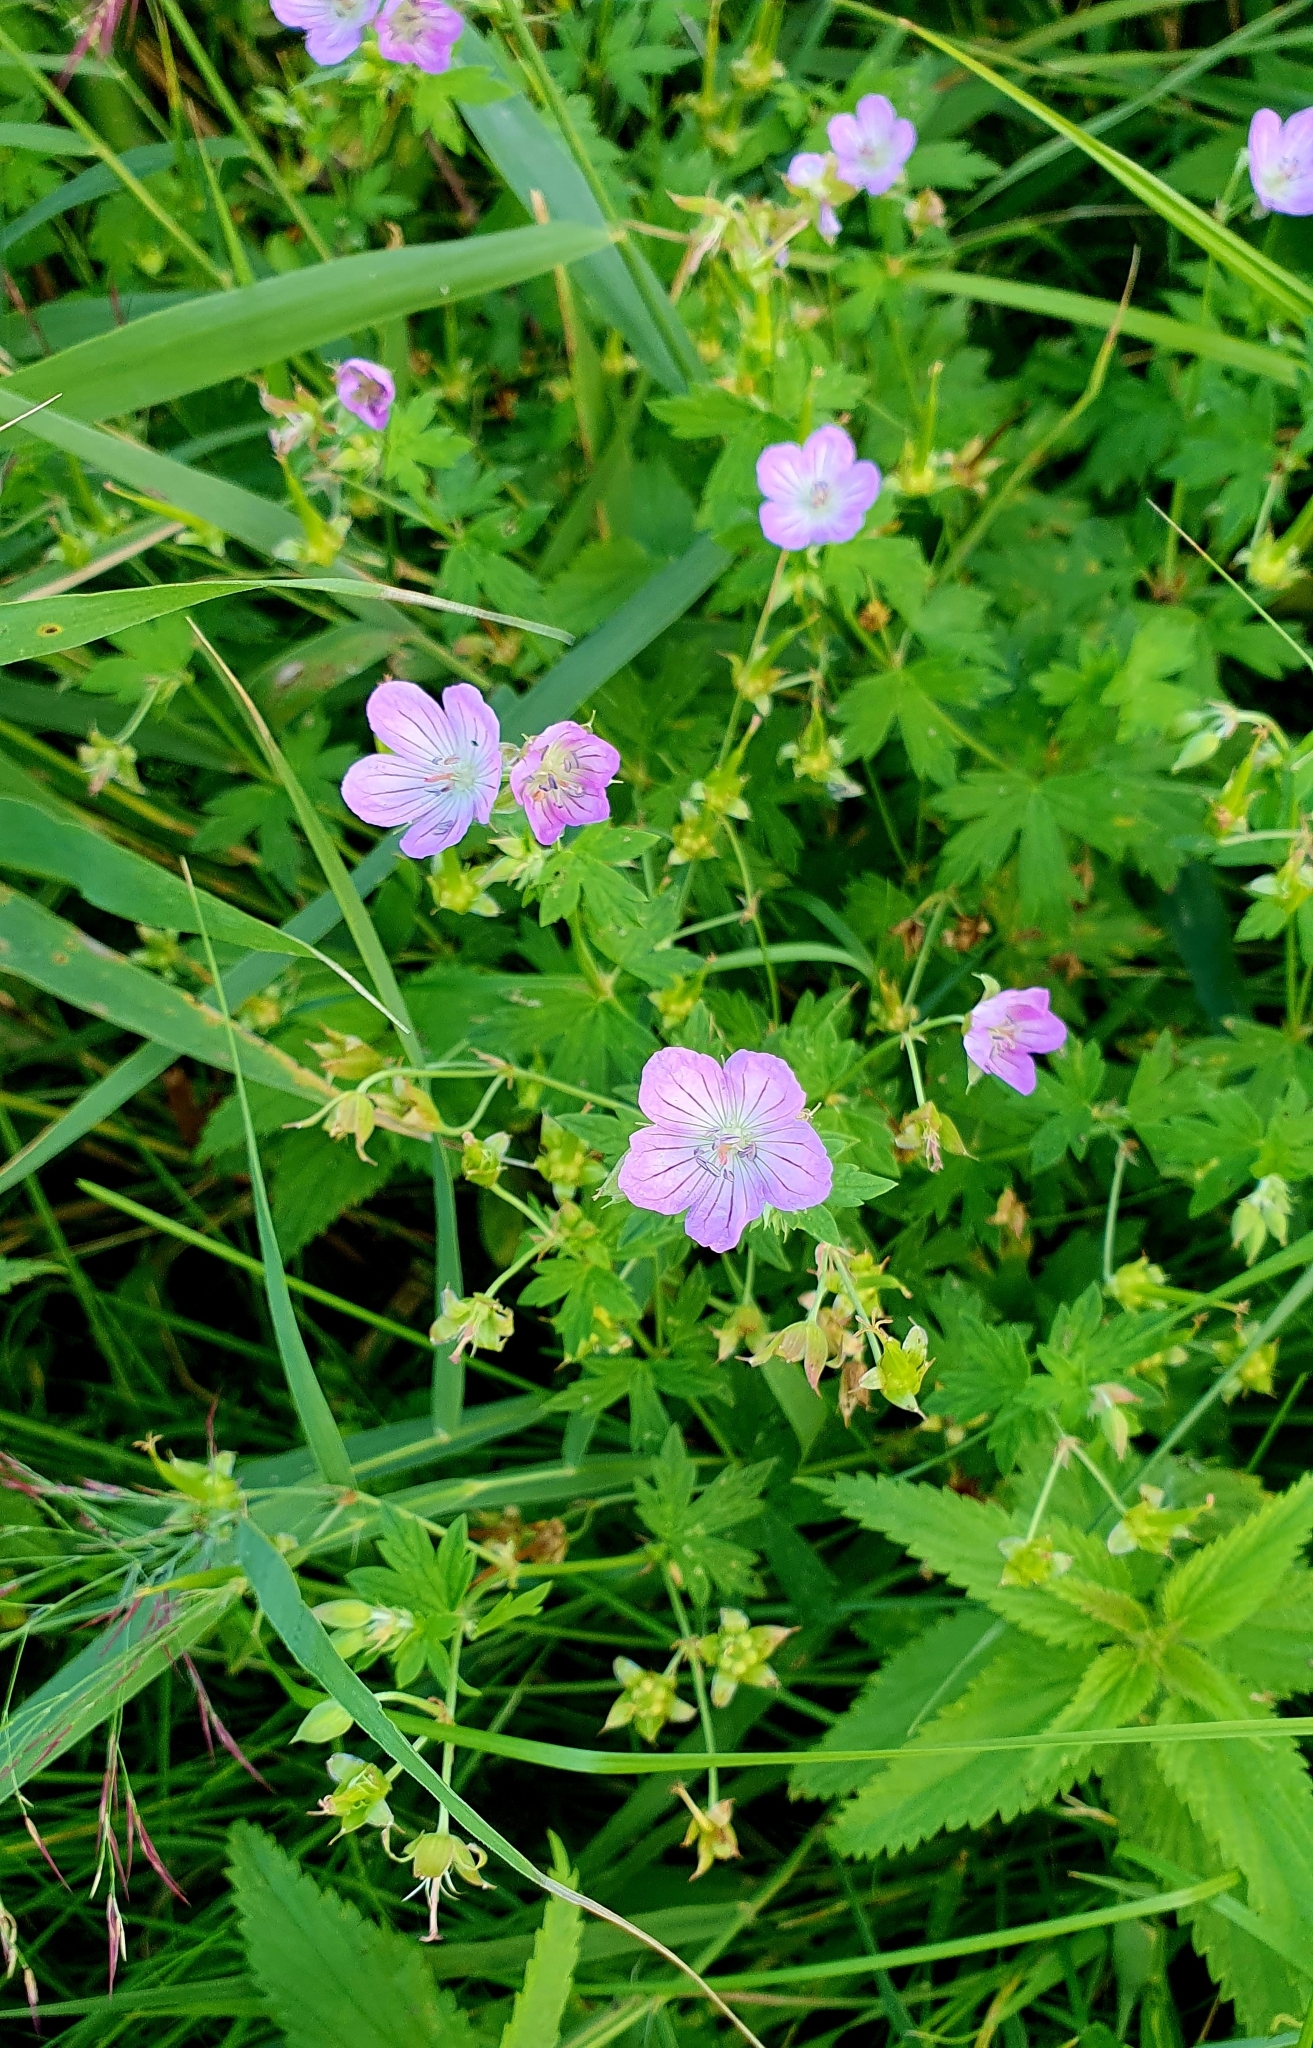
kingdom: Plantae
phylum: Tracheophyta
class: Magnoliopsida
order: Geraniales
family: Geraniaceae
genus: Geranium
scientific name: Geranium collinum
